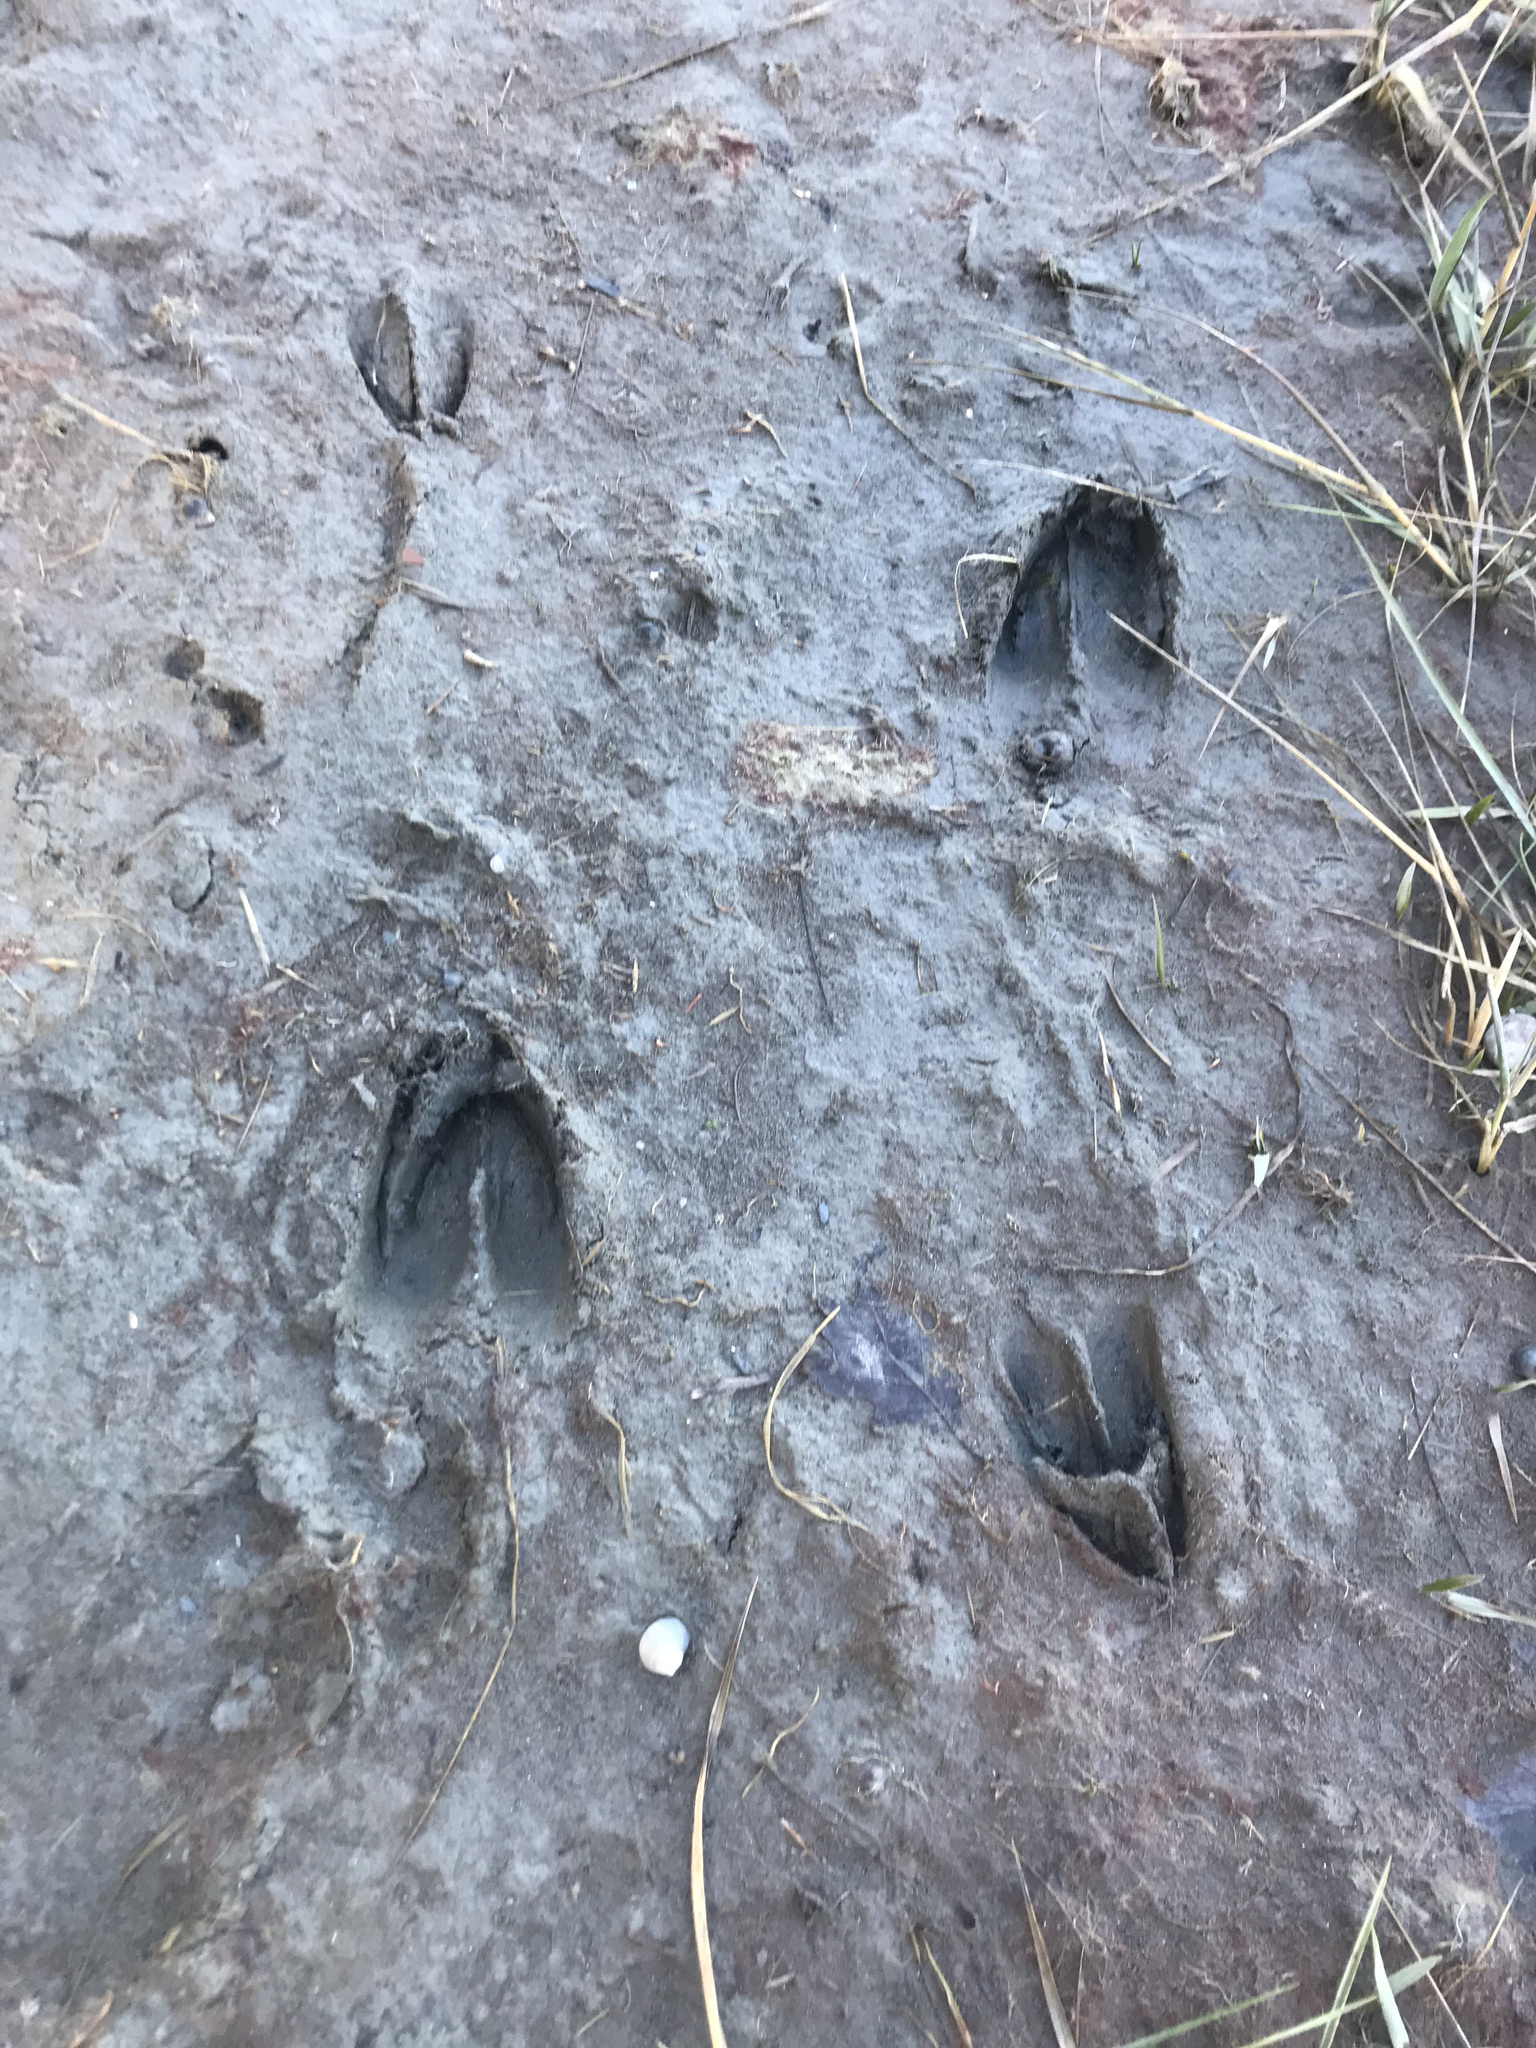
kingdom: Animalia
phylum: Chordata
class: Mammalia
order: Artiodactyla
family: Cervidae
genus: Odocoileus
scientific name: Odocoileus virginianus
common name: White-tailed deer
